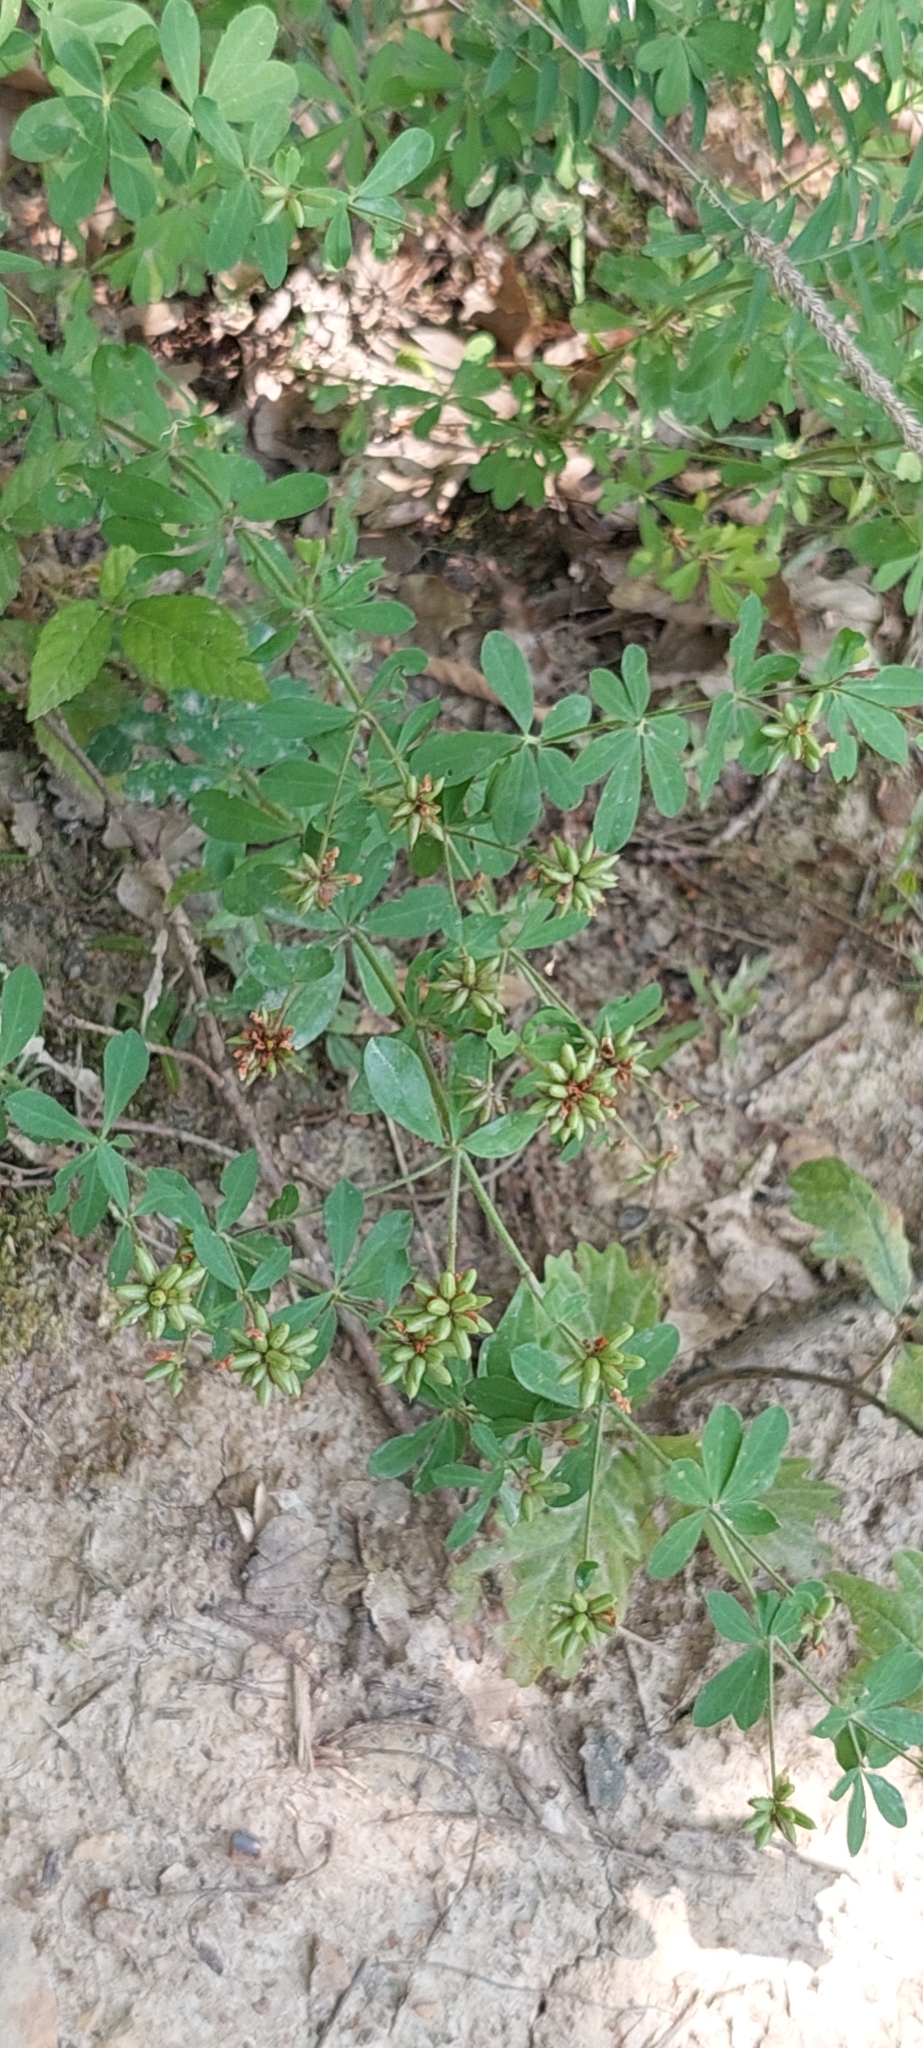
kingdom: Plantae
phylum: Tracheophyta
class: Magnoliopsida
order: Fabales
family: Fabaceae
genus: Lotus
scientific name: Lotus herbaceus
